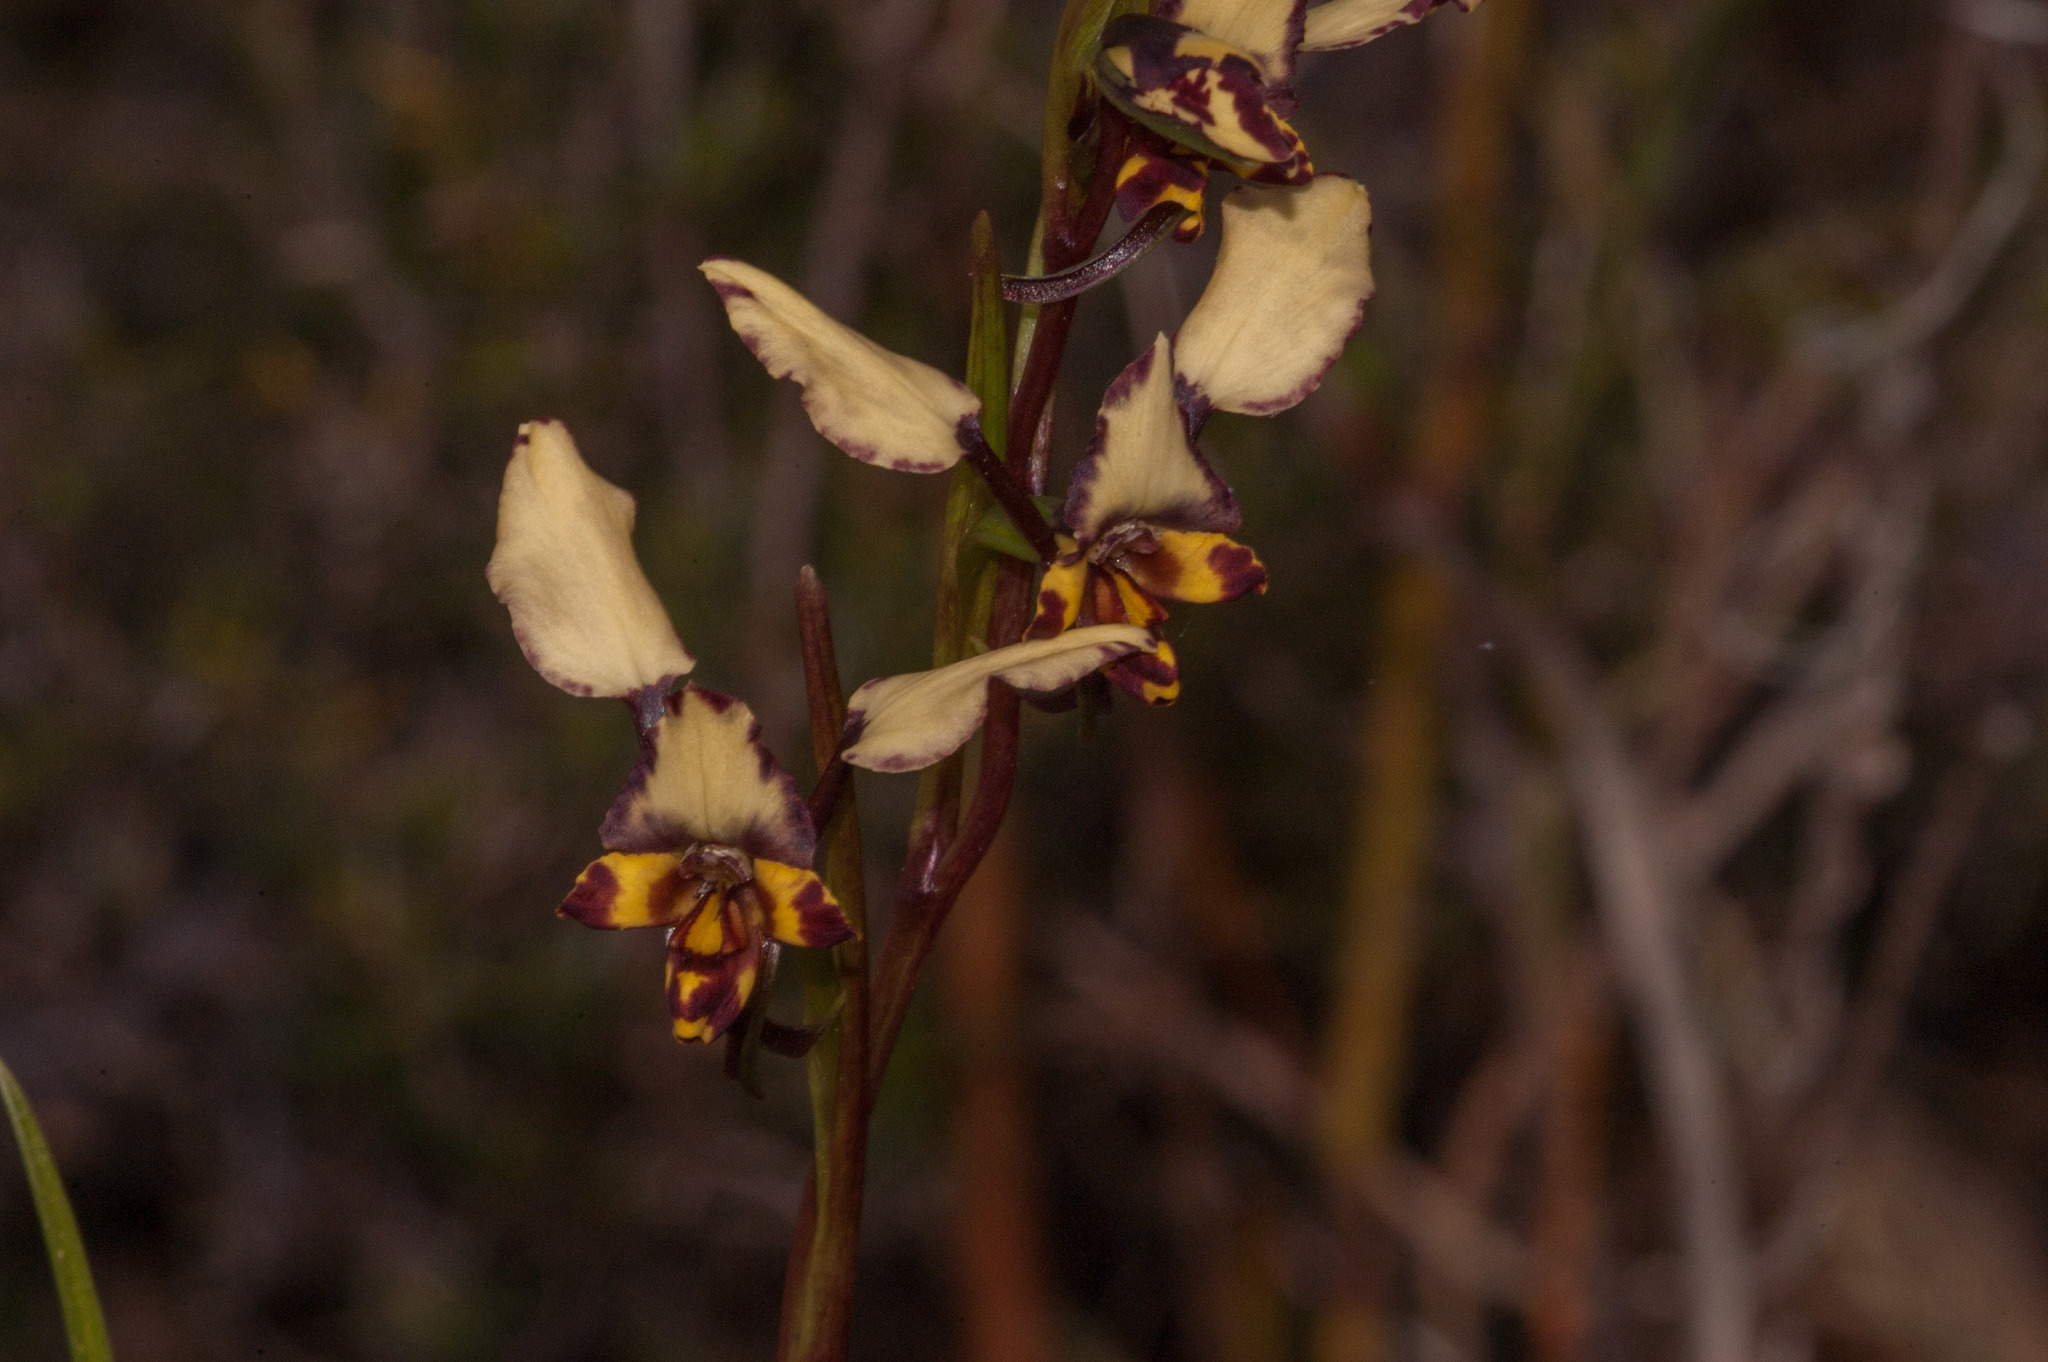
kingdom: Plantae
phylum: Tracheophyta
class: Liliopsida
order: Asparagales
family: Orchidaceae
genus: Diuris
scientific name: Diuris pardina
